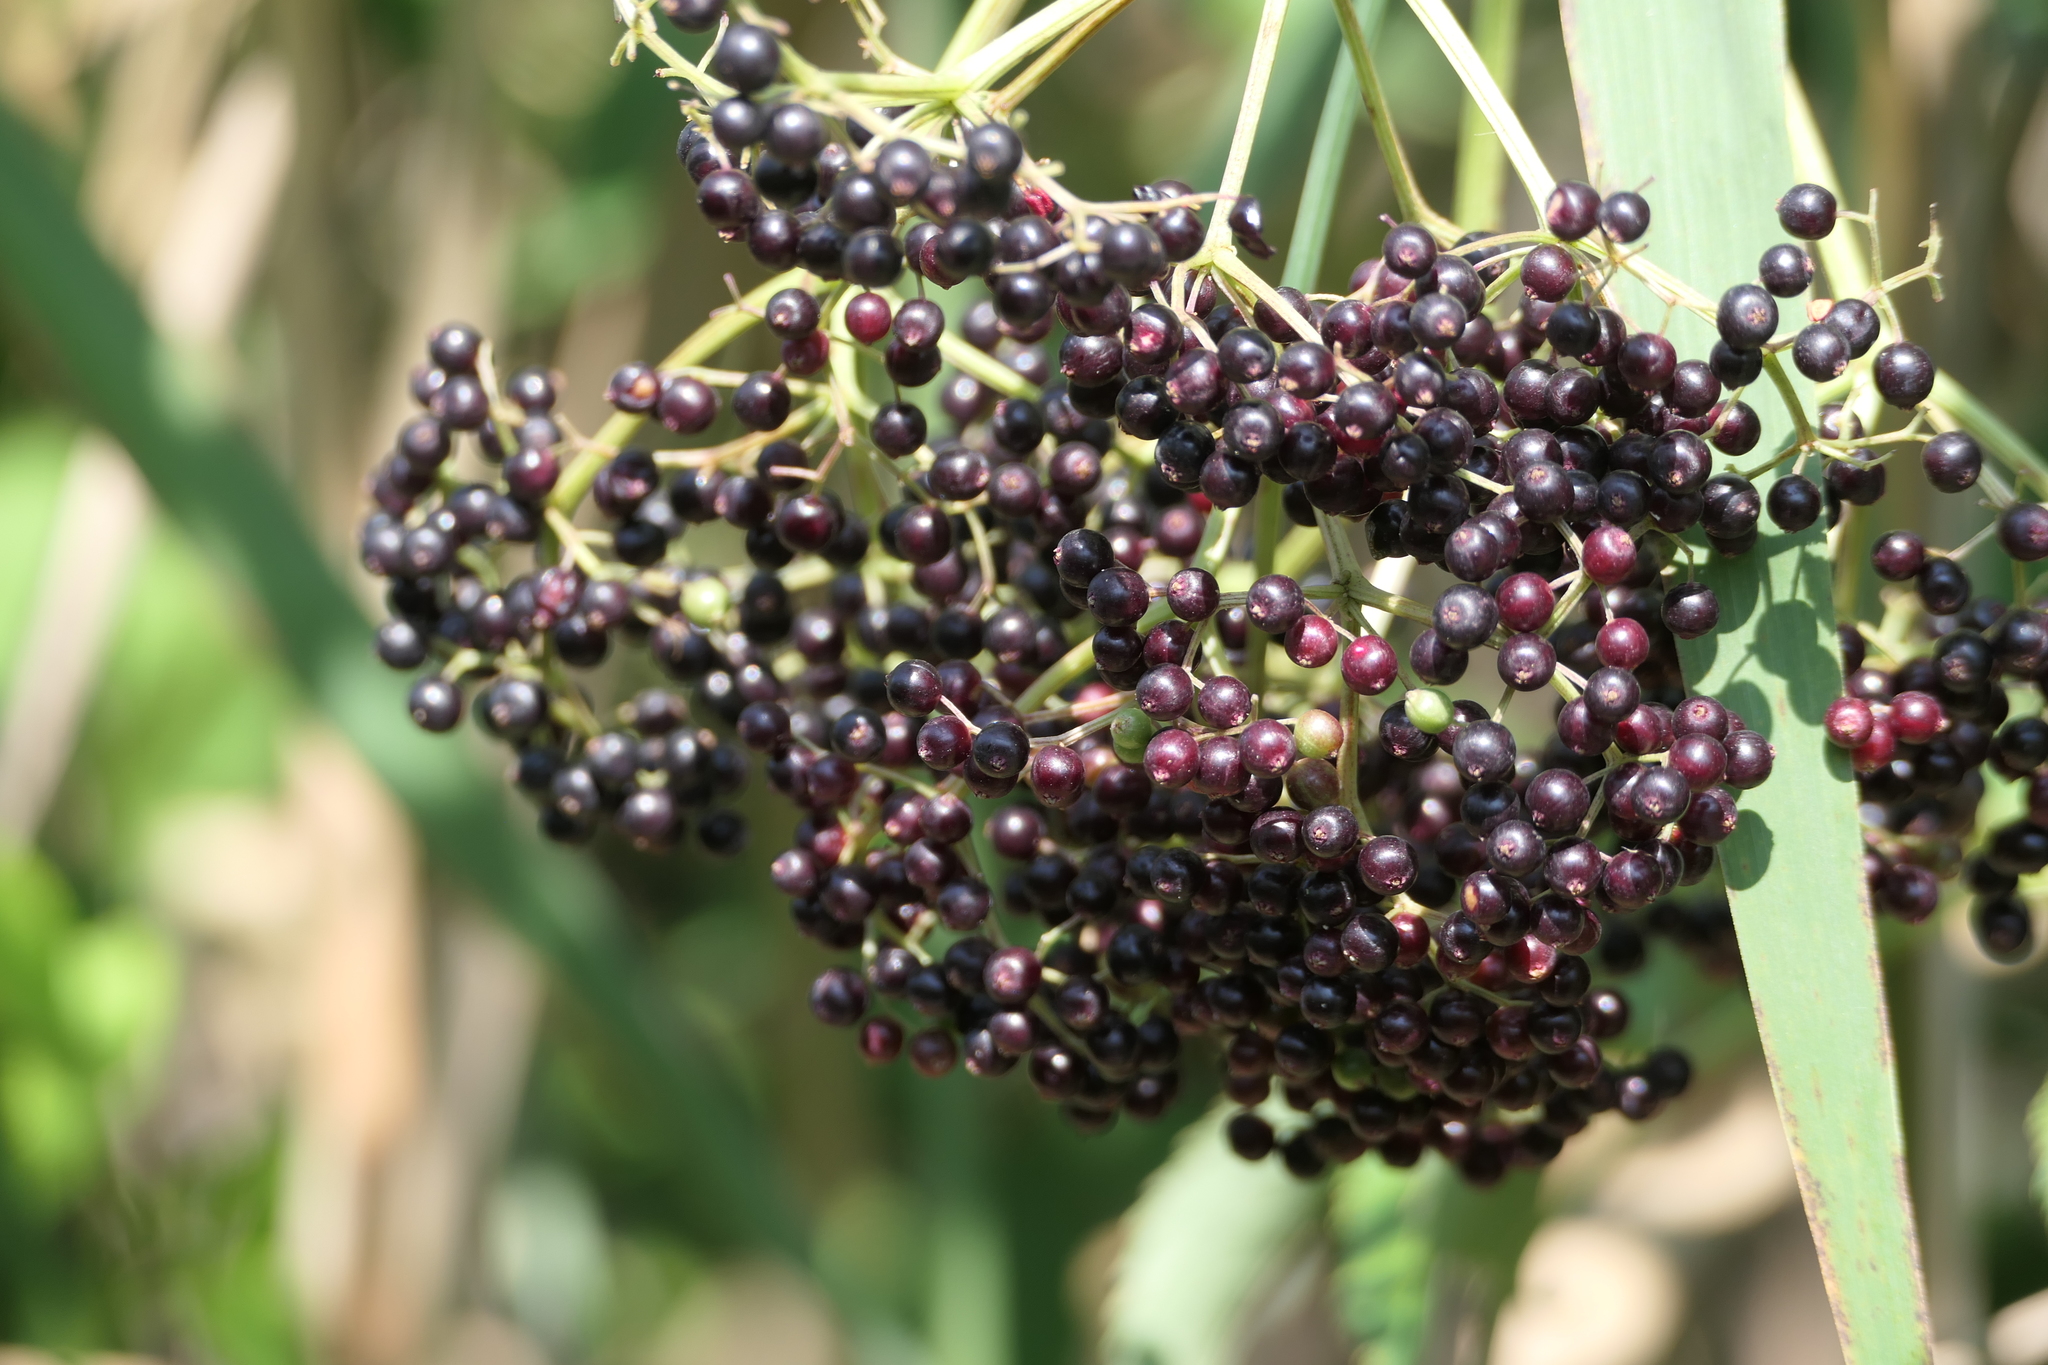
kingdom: Plantae
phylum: Tracheophyta
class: Magnoliopsida
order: Dipsacales
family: Viburnaceae
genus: Sambucus
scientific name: Sambucus canadensis
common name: American elder
